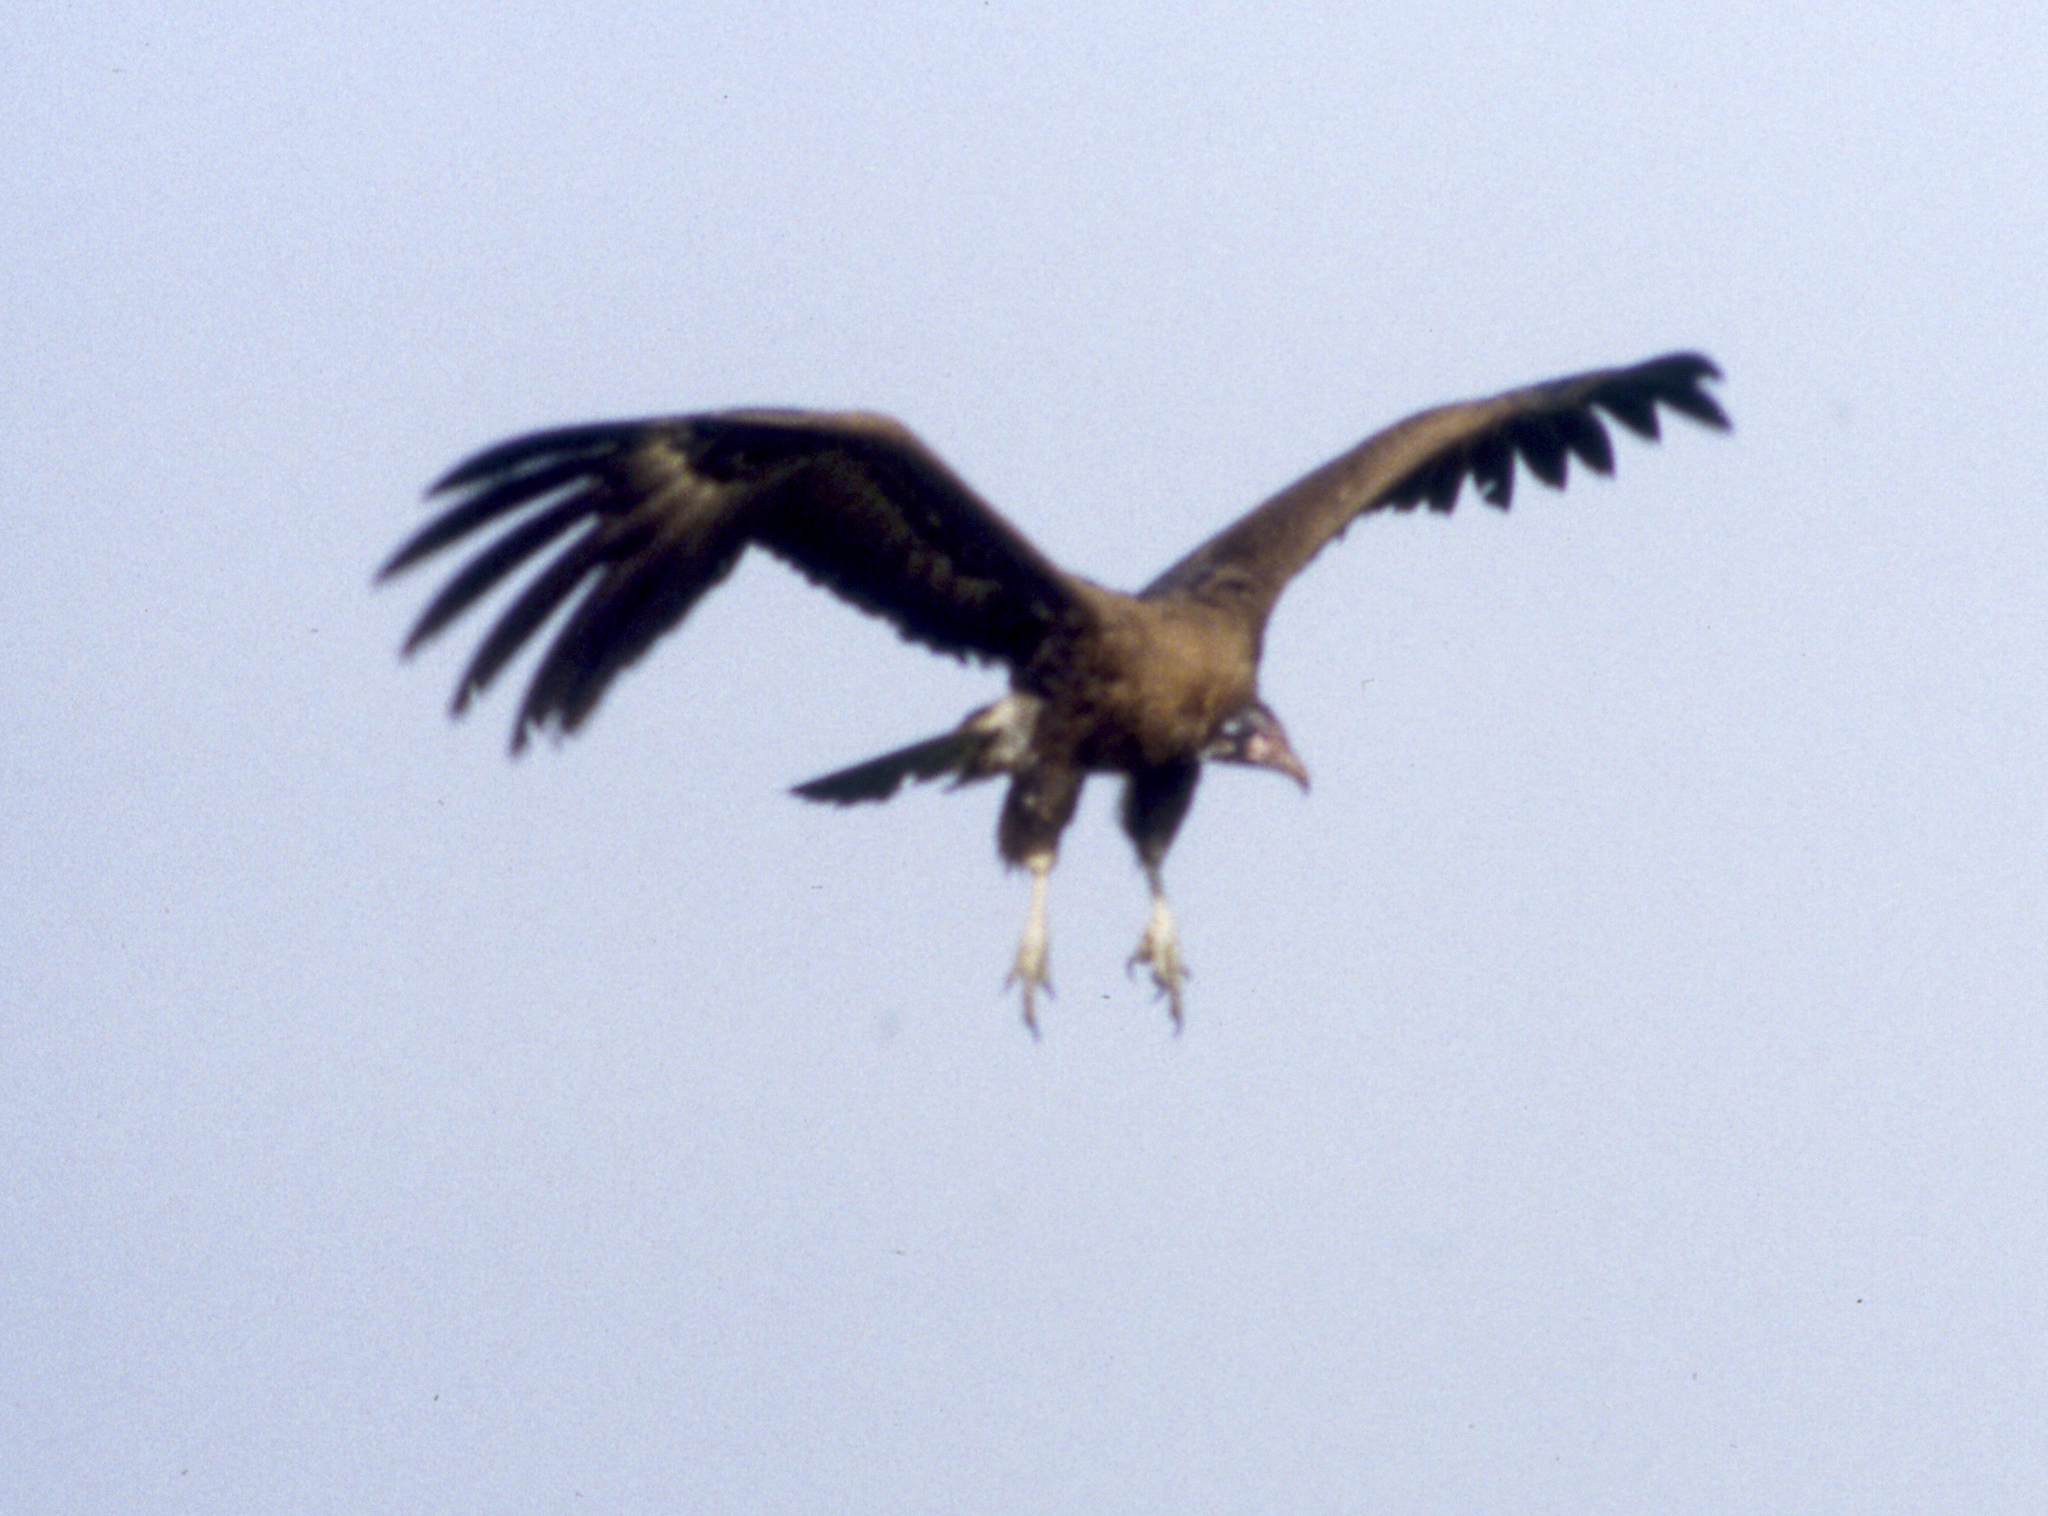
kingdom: Animalia
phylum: Chordata
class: Aves
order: Accipitriformes
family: Accipitridae
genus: Necrosyrtes
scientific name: Necrosyrtes monachus
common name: Hooded vulture
